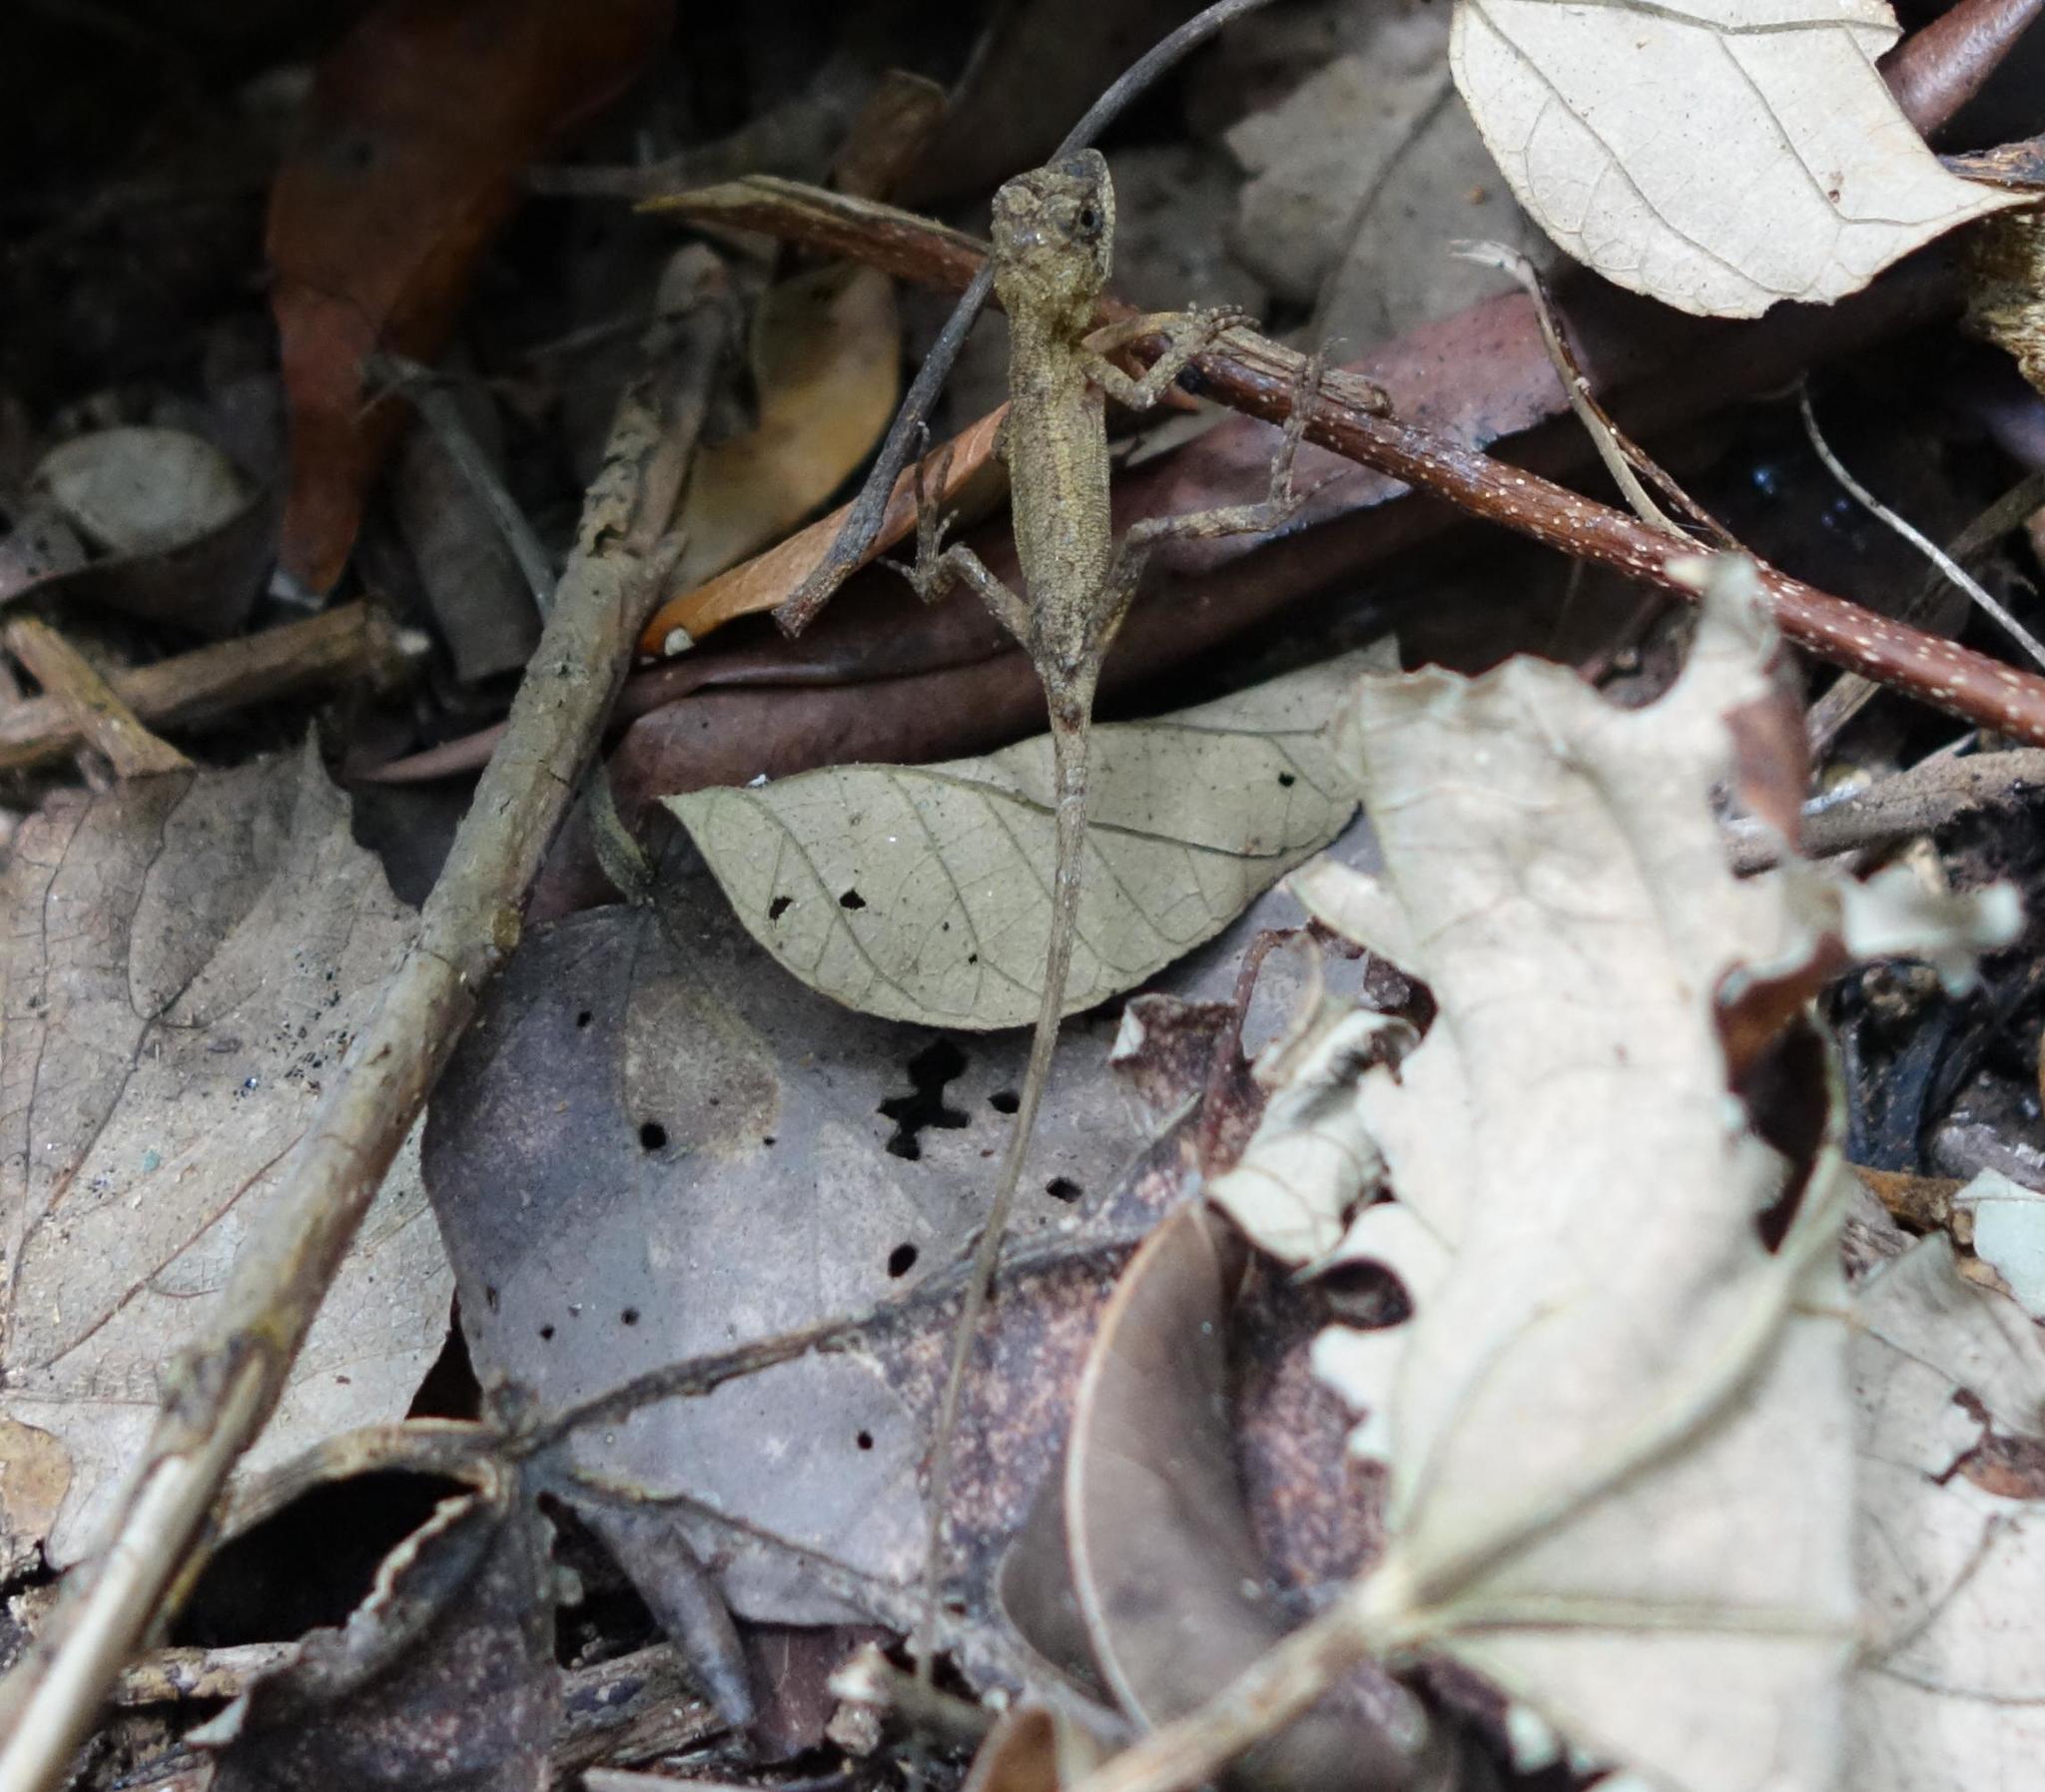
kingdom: Animalia
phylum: Chordata
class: Squamata
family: Agamidae
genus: Diploderma
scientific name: Diploderma swinhonis
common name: Taiwan japalure
